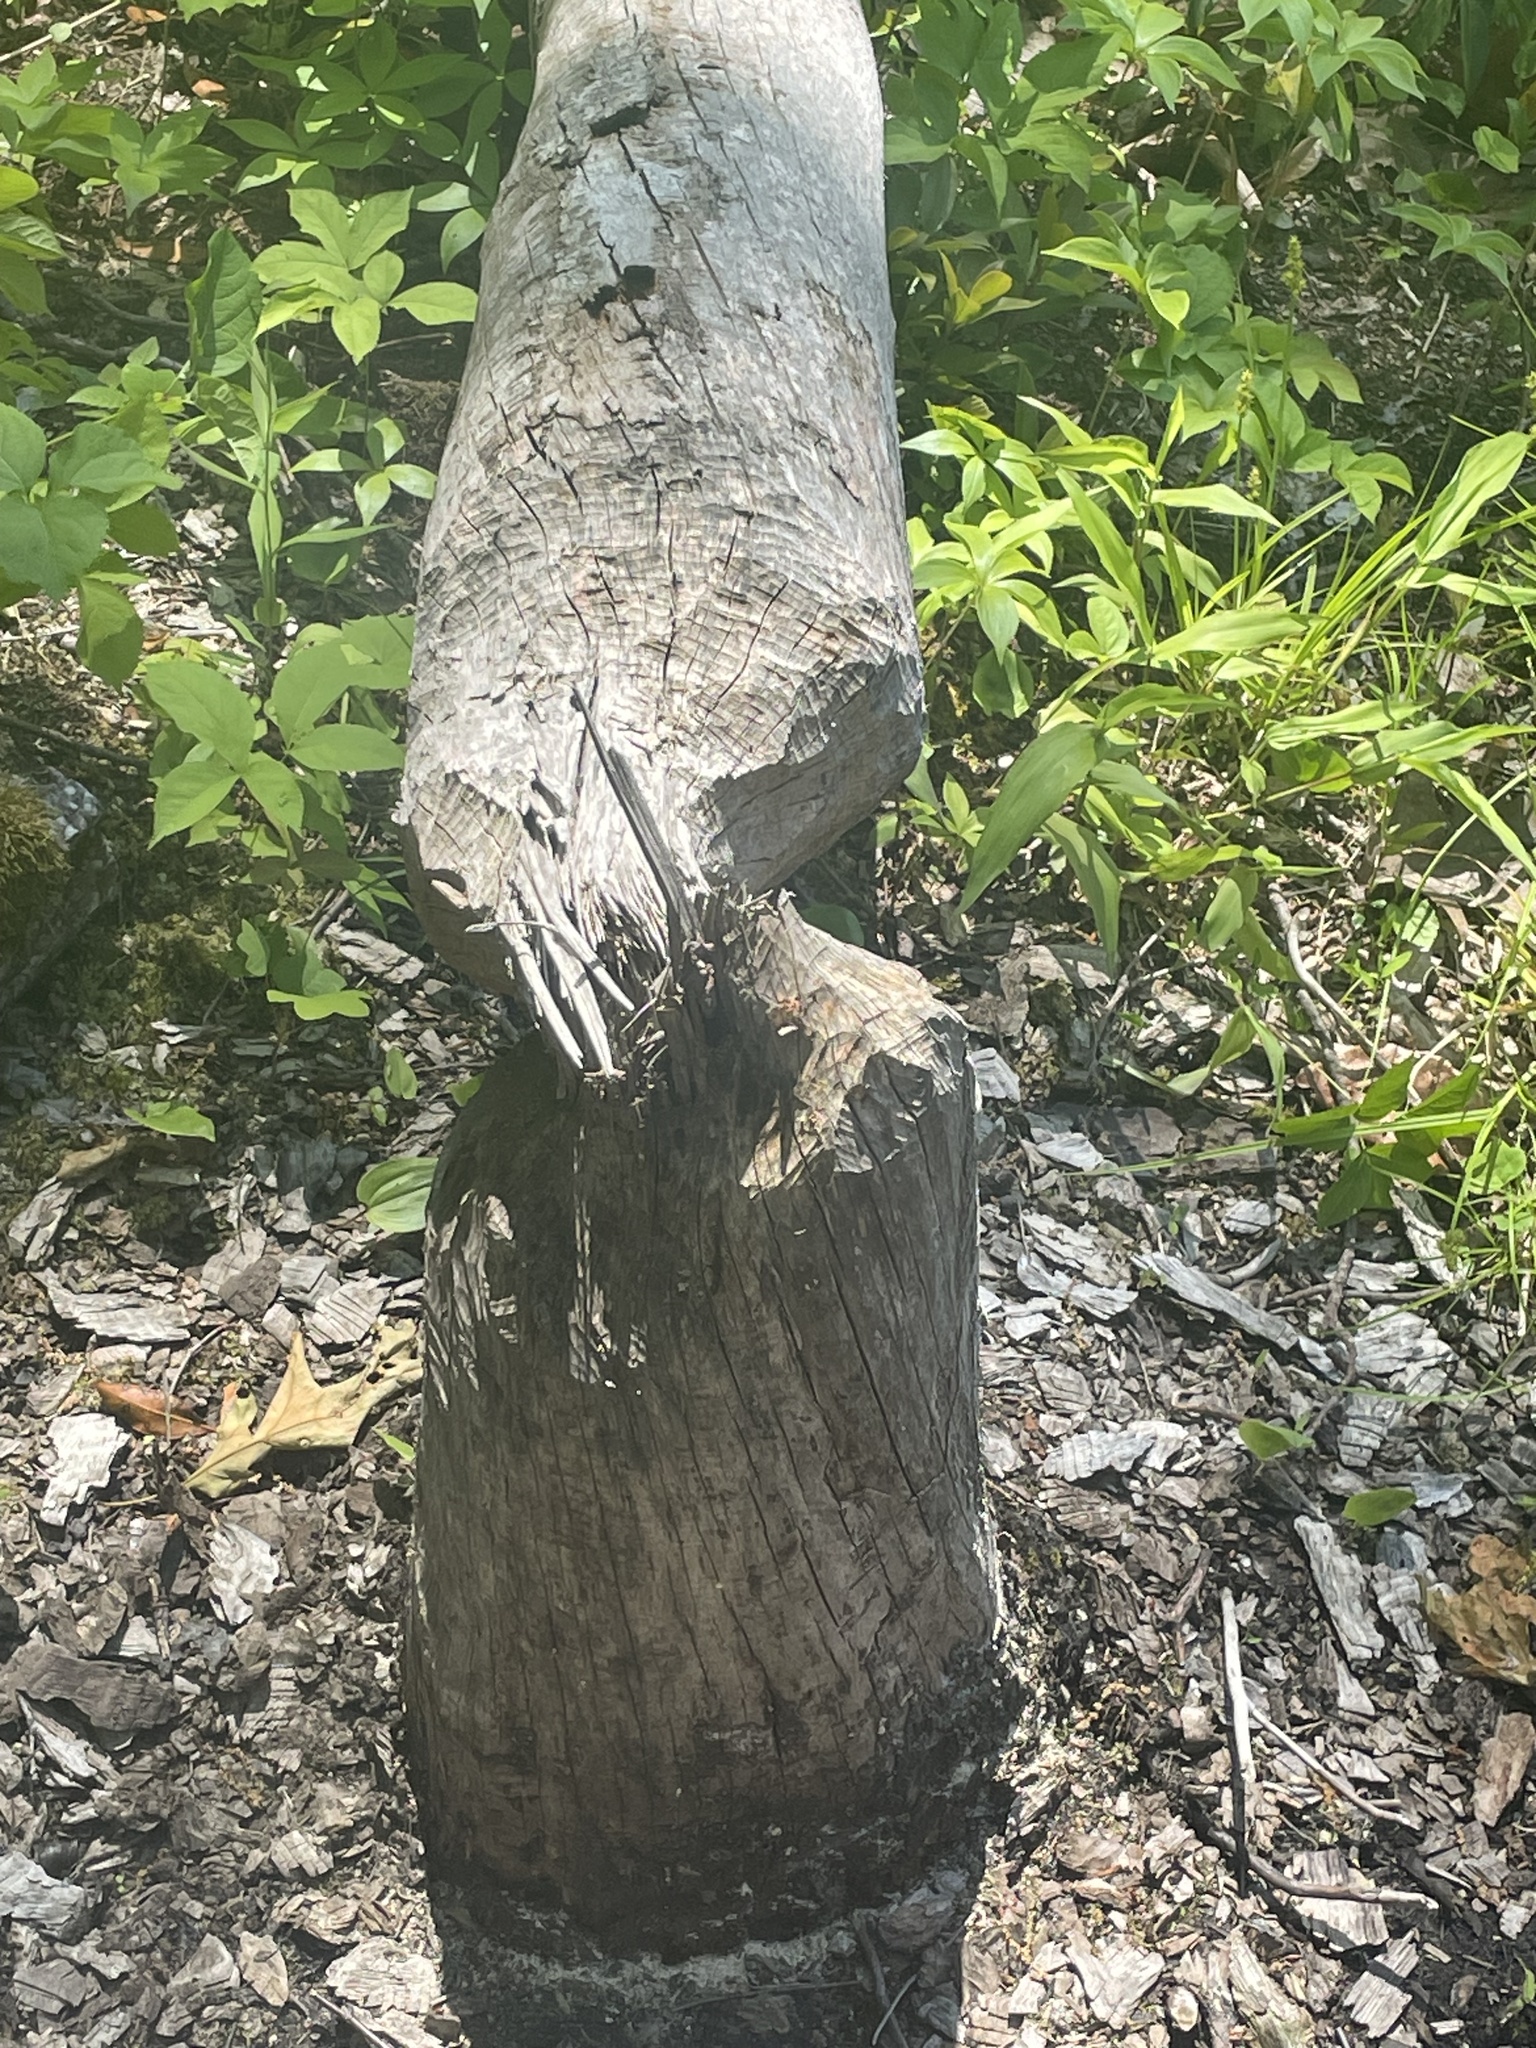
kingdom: Animalia
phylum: Chordata
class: Mammalia
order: Rodentia
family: Castoridae
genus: Castor
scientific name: Castor canadensis
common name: American beaver
